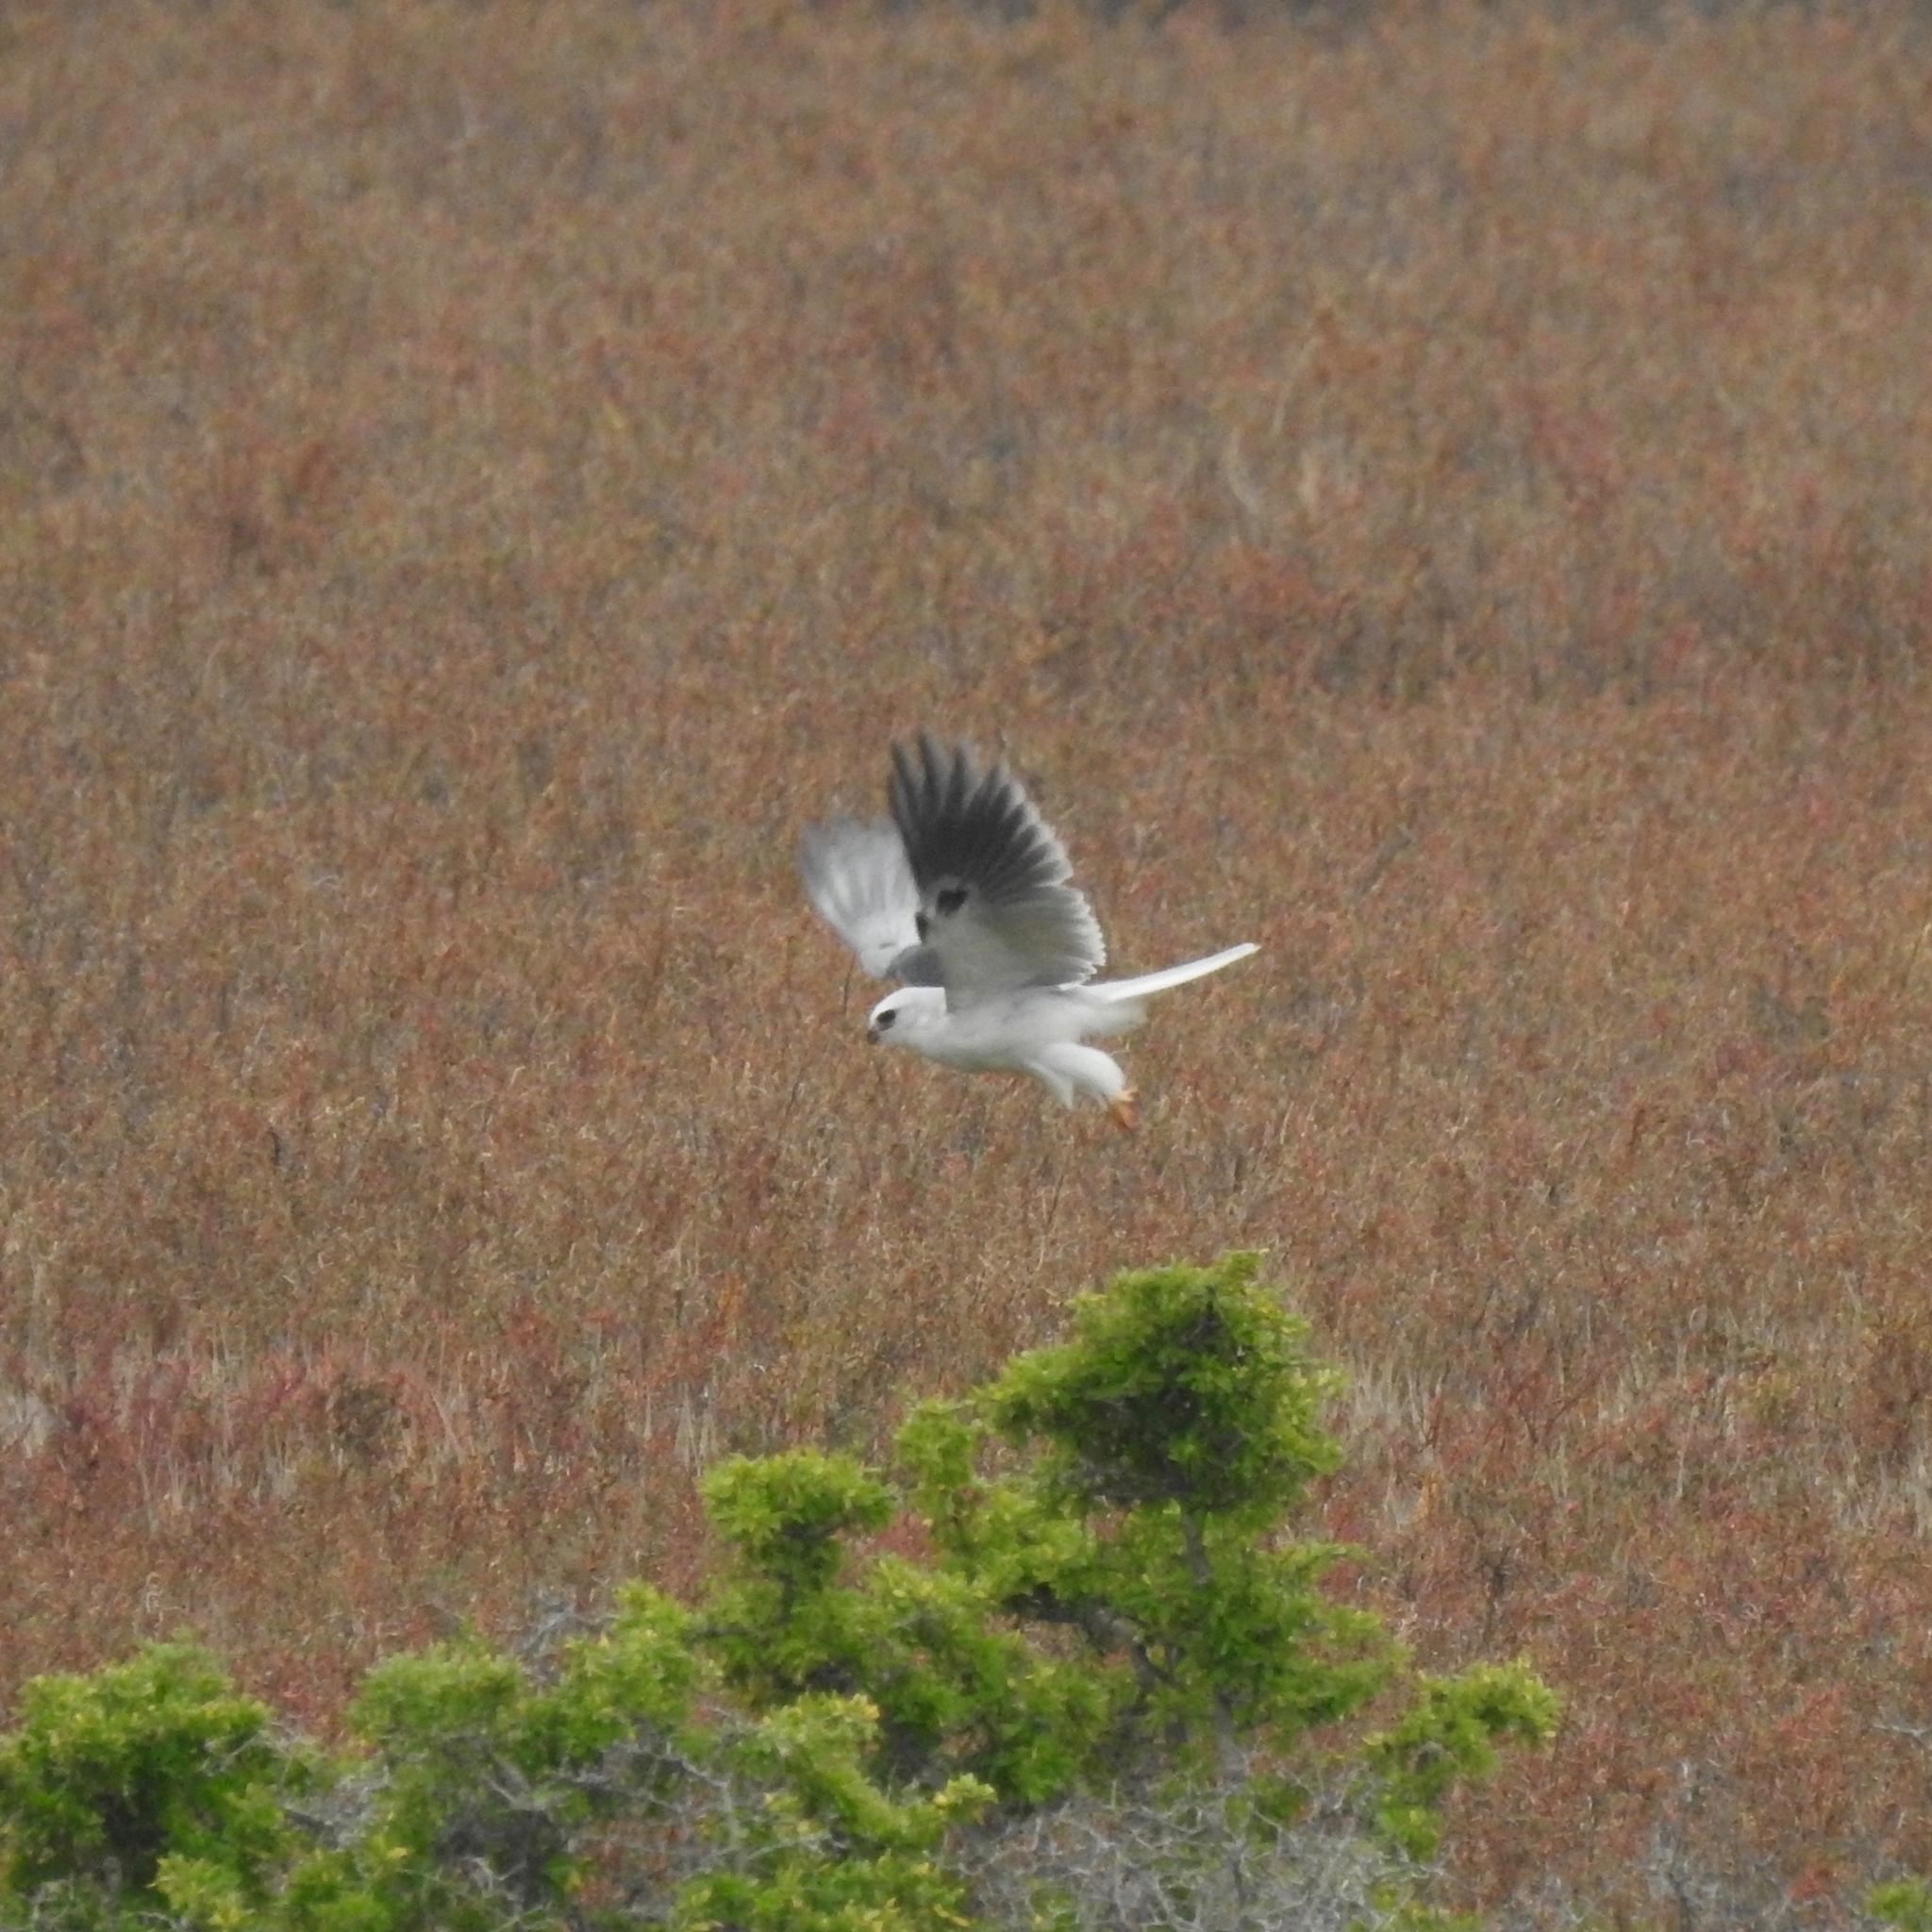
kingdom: Animalia
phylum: Chordata
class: Aves
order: Accipitriformes
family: Accipitridae
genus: Elanus
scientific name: Elanus leucurus
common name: White-tailed kite
